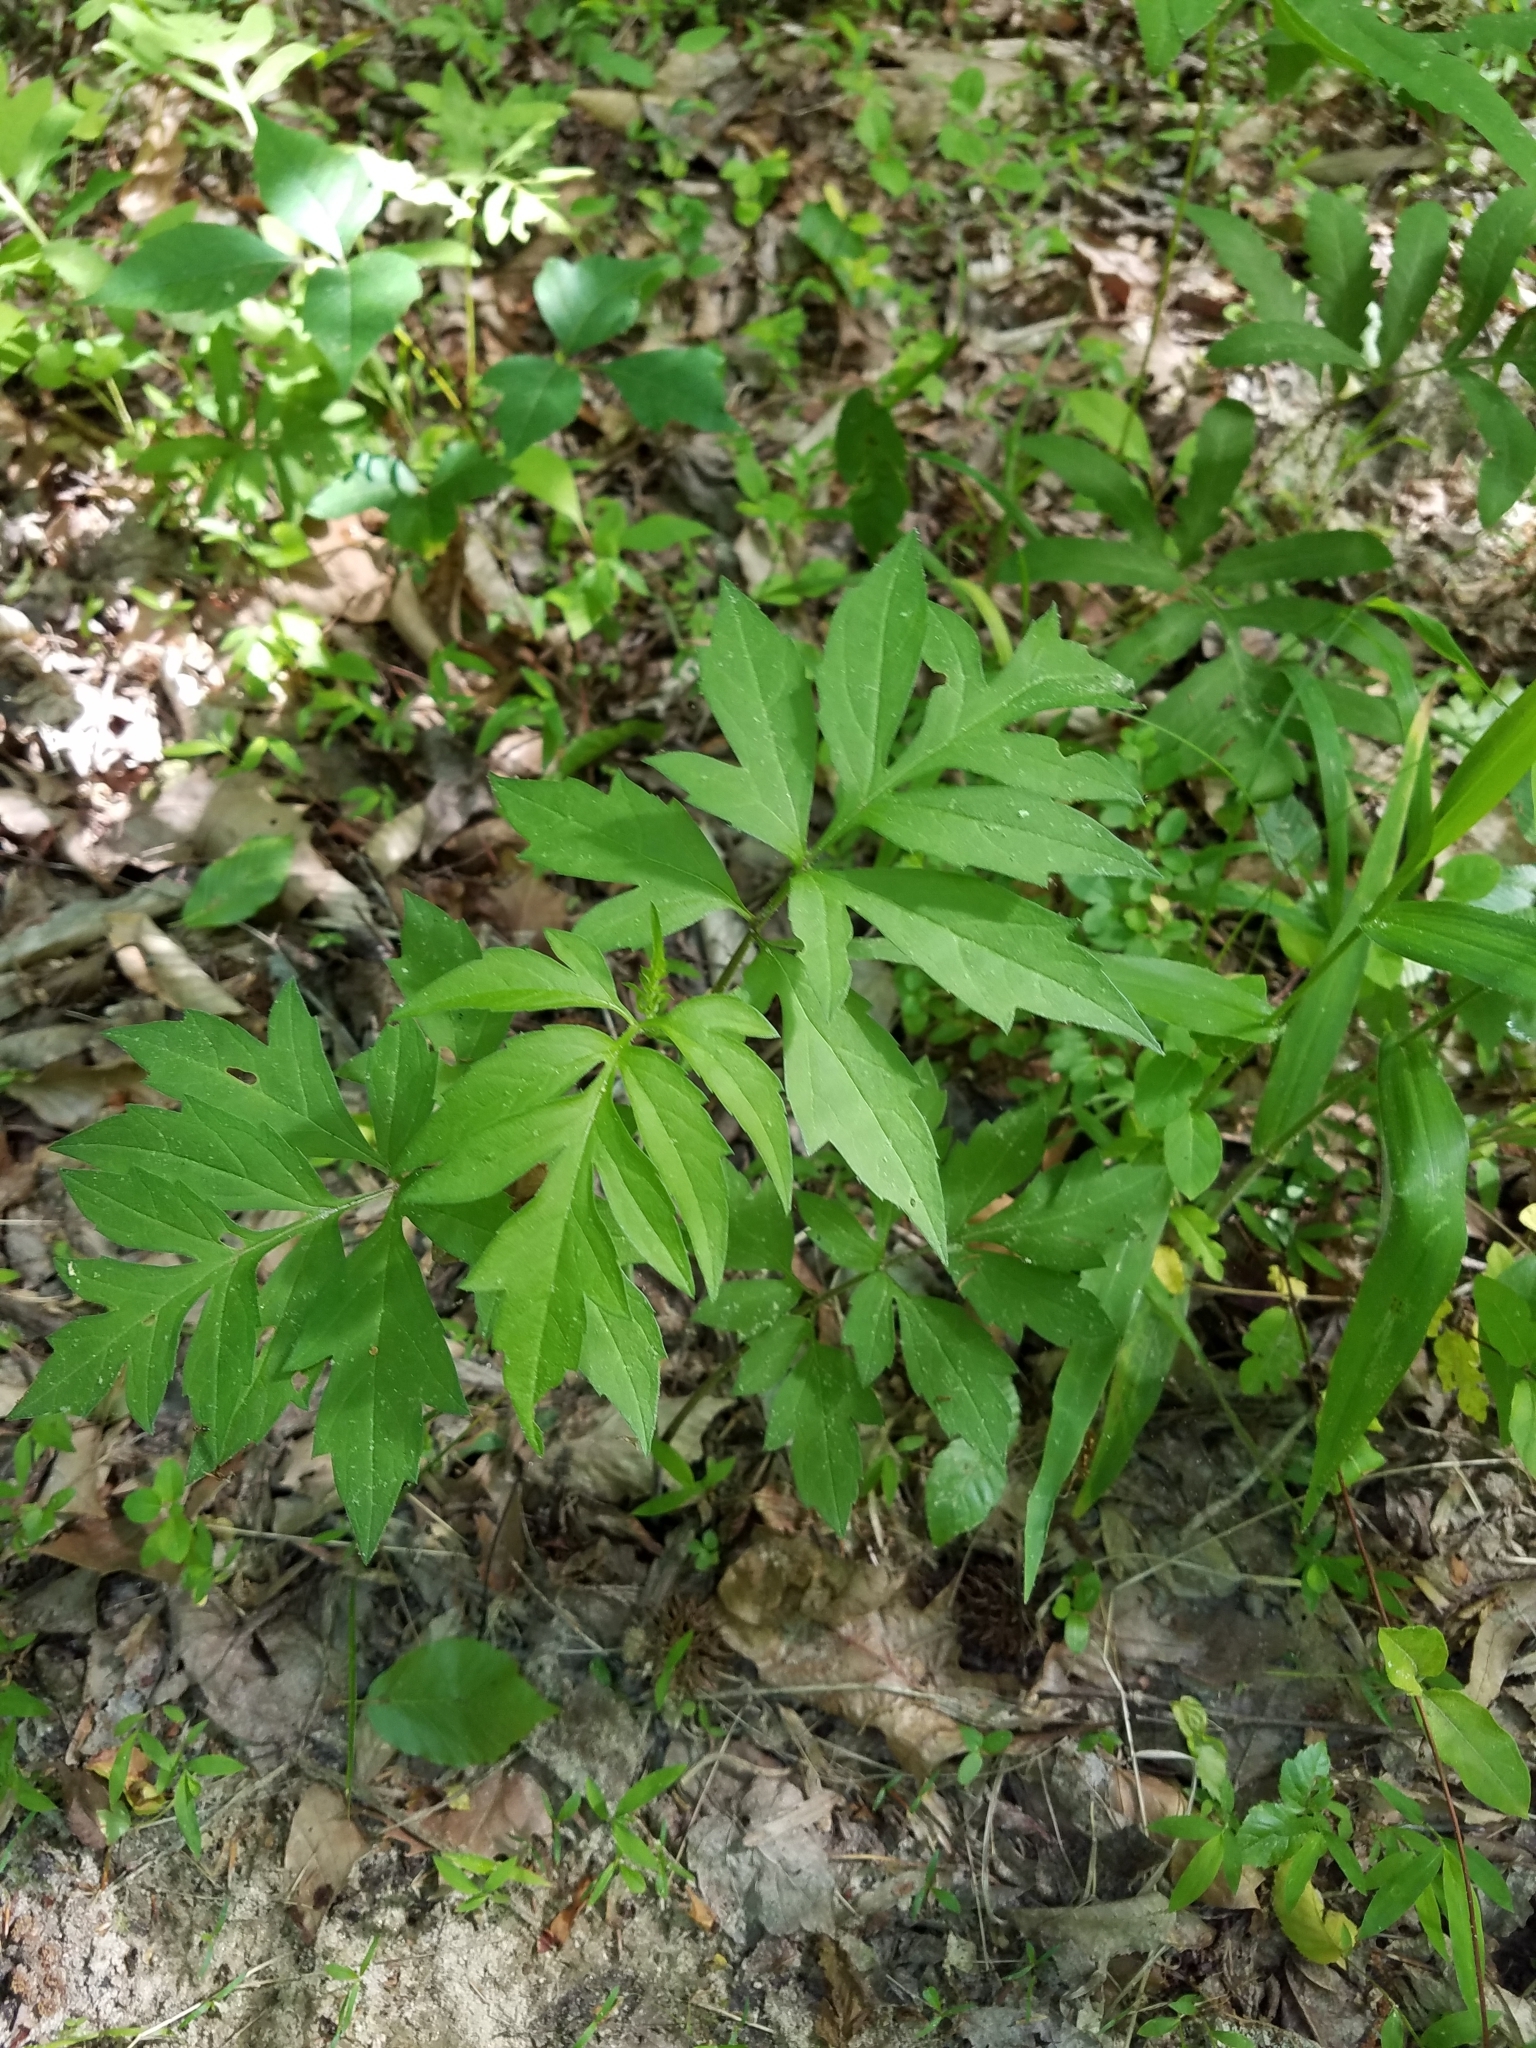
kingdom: Plantae
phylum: Tracheophyta
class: Magnoliopsida
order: Asterales
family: Asteraceae
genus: Rudbeckia
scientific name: Rudbeckia laciniata
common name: Coneflower
